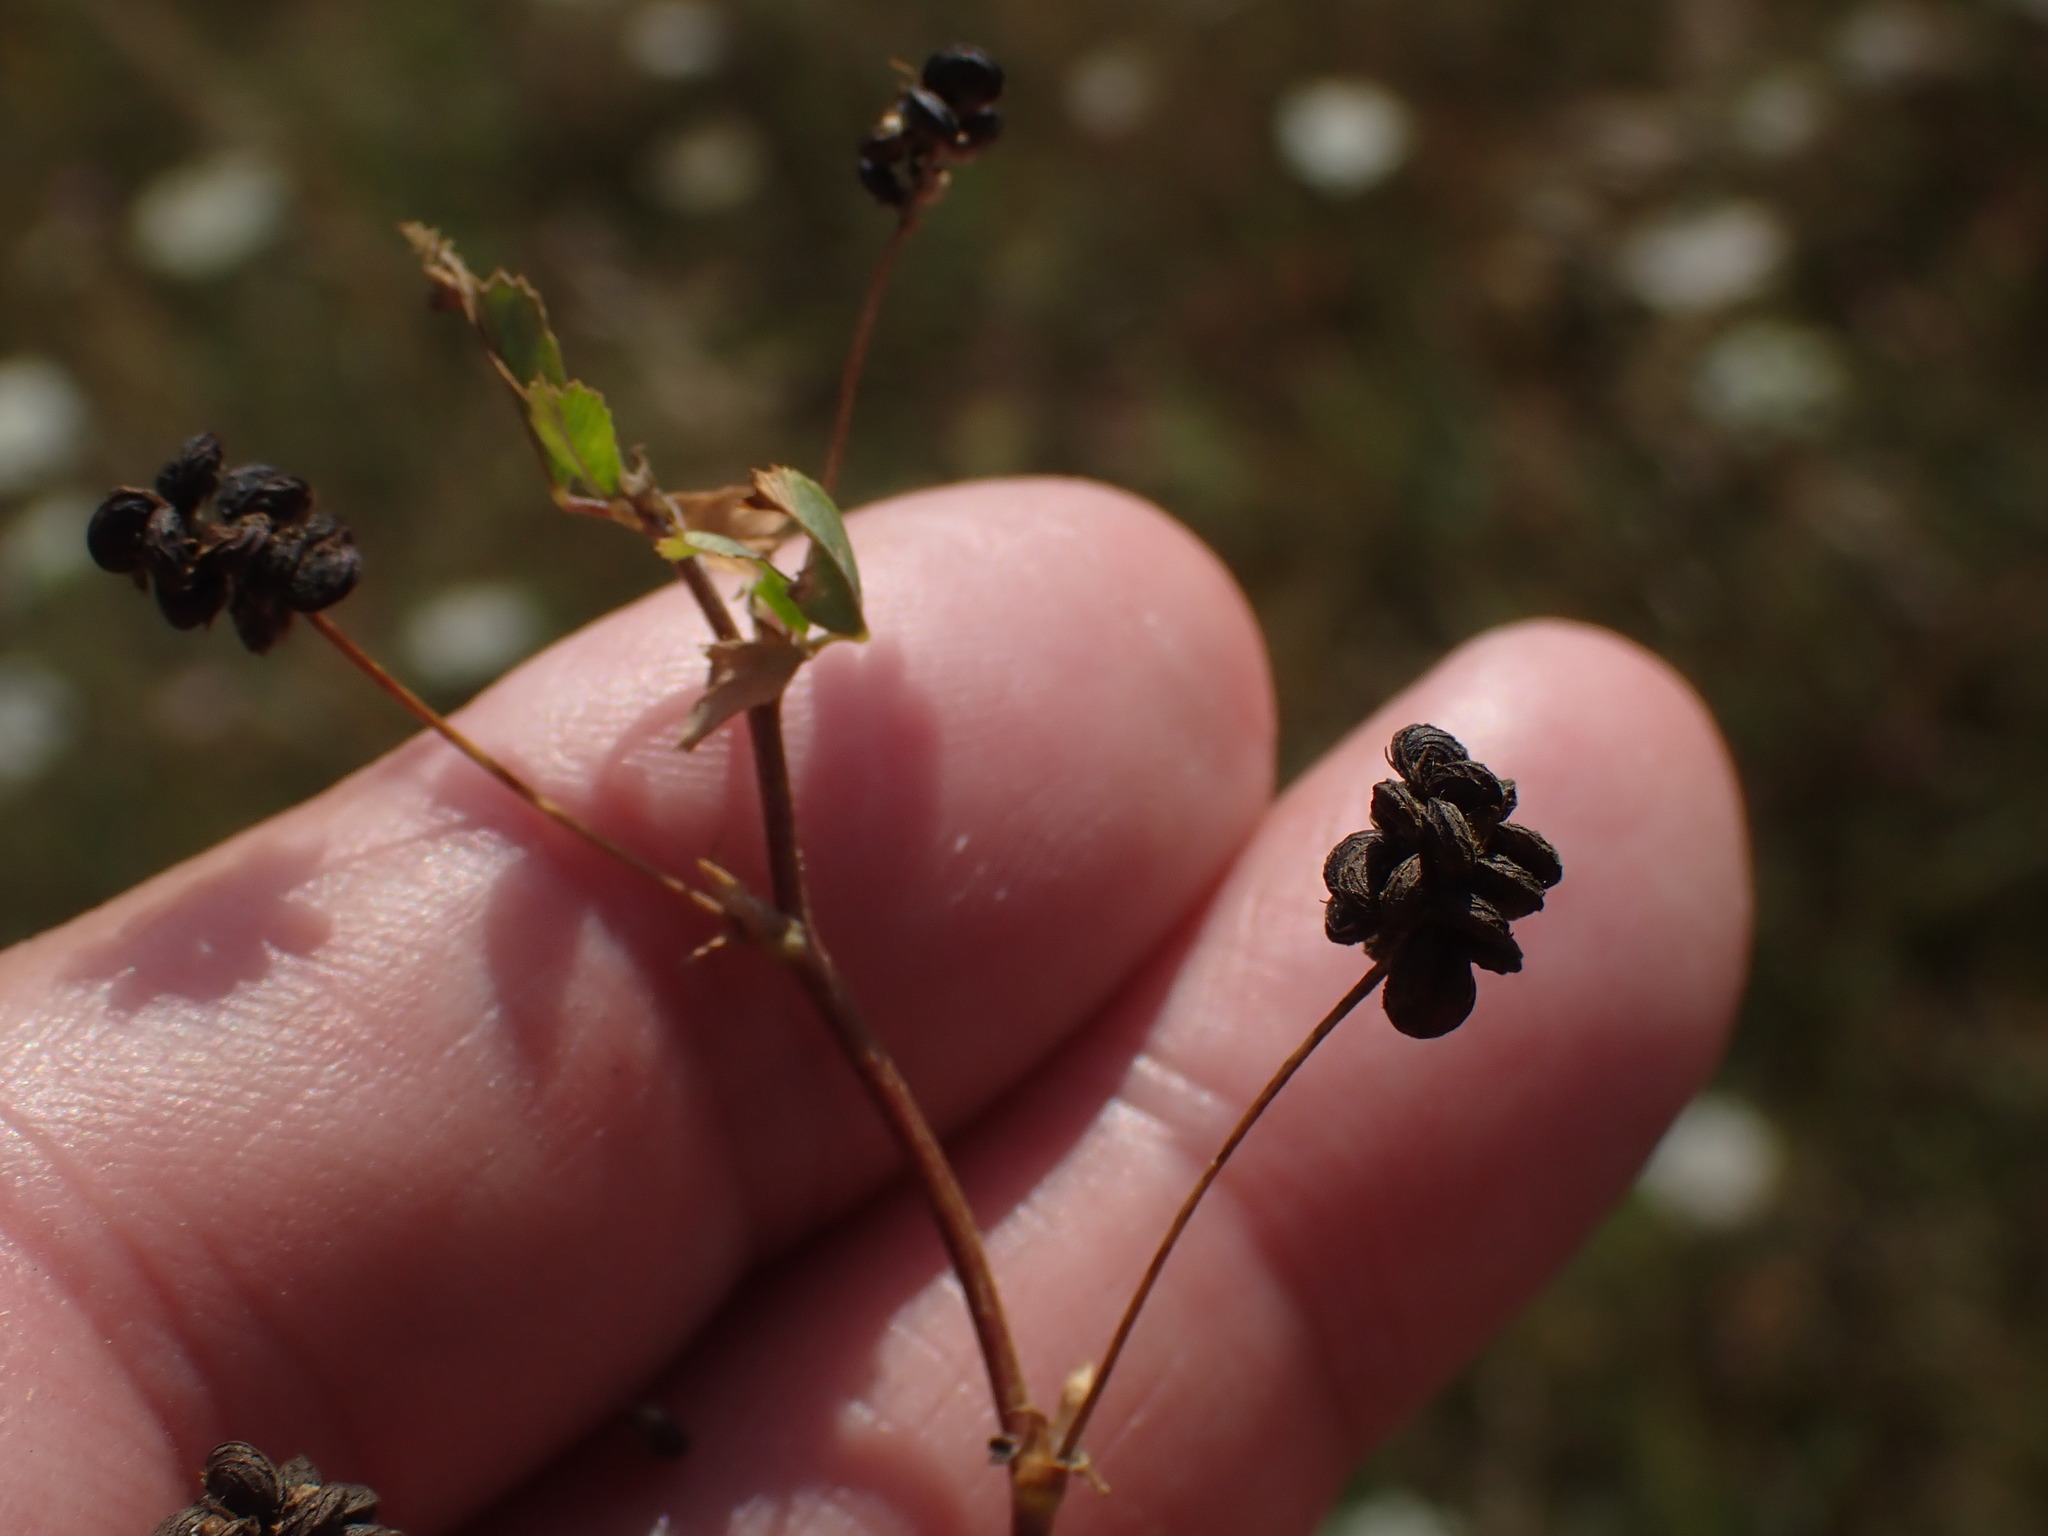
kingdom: Plantae
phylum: Tracheophyta
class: Magnoliopsida
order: Fabales
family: Fabaceae
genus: Medicago
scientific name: Medicago lupulina
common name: Black medick
